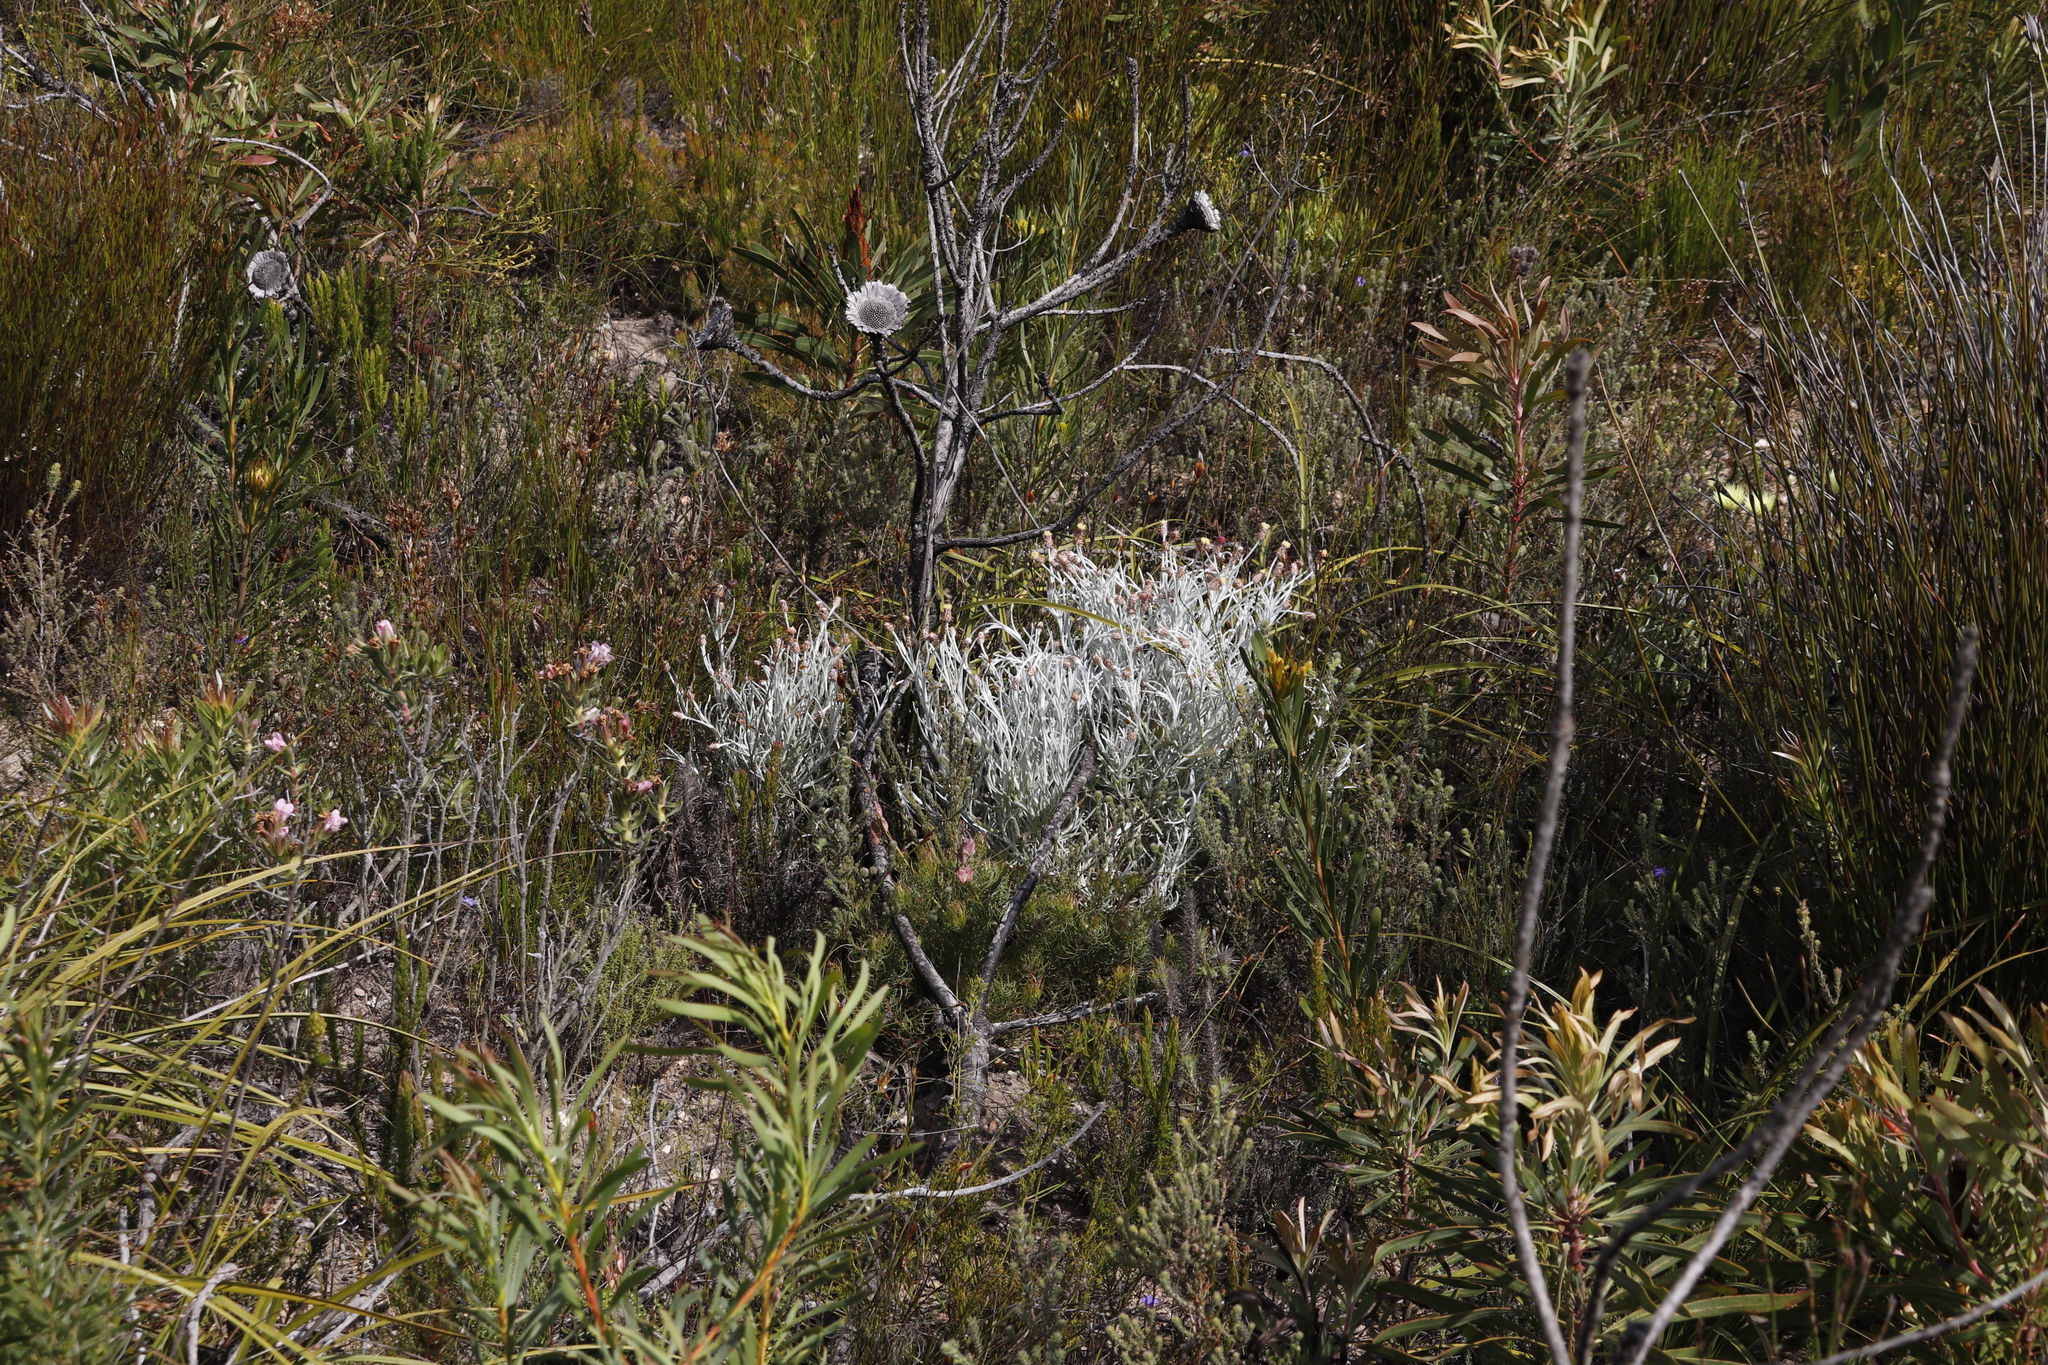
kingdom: Plantae
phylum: Tracheophyta
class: Magnoliopsida
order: Asterales
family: Asteraceae
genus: Syncarpha
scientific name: Syncarpha gnaphaloides
